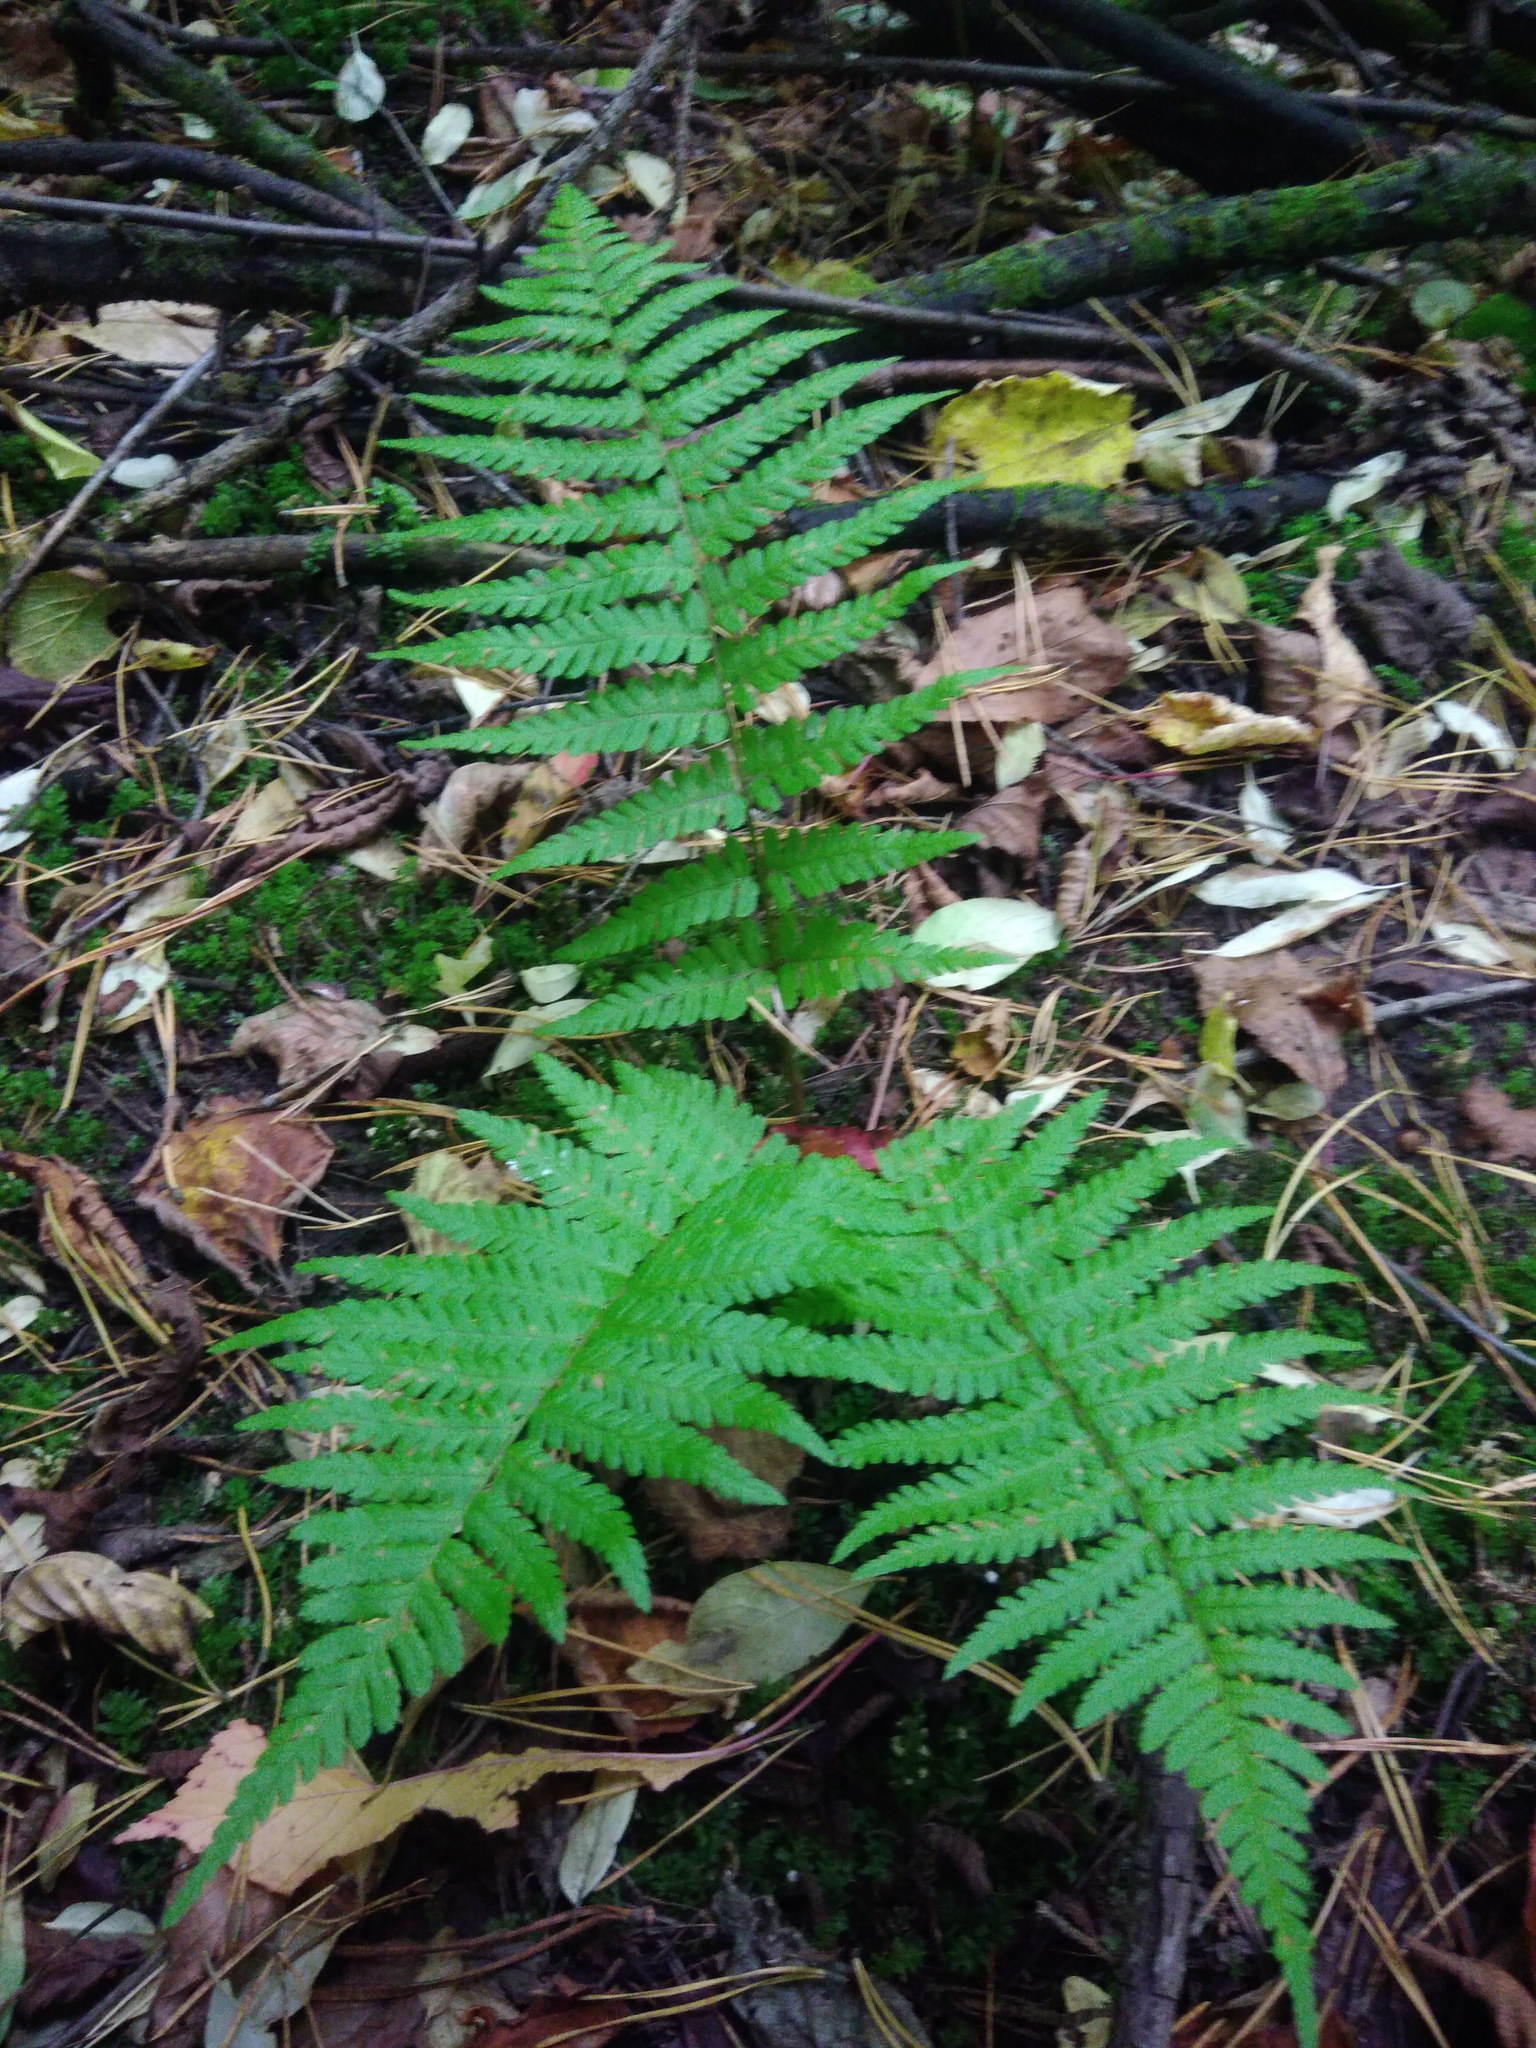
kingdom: Plantae
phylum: Tracheophyta
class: Polypodiopsida
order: Polypodiales
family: Dryopteridaceae
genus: Dryopteris
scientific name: Dryopteris filix-mas
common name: Male fern
